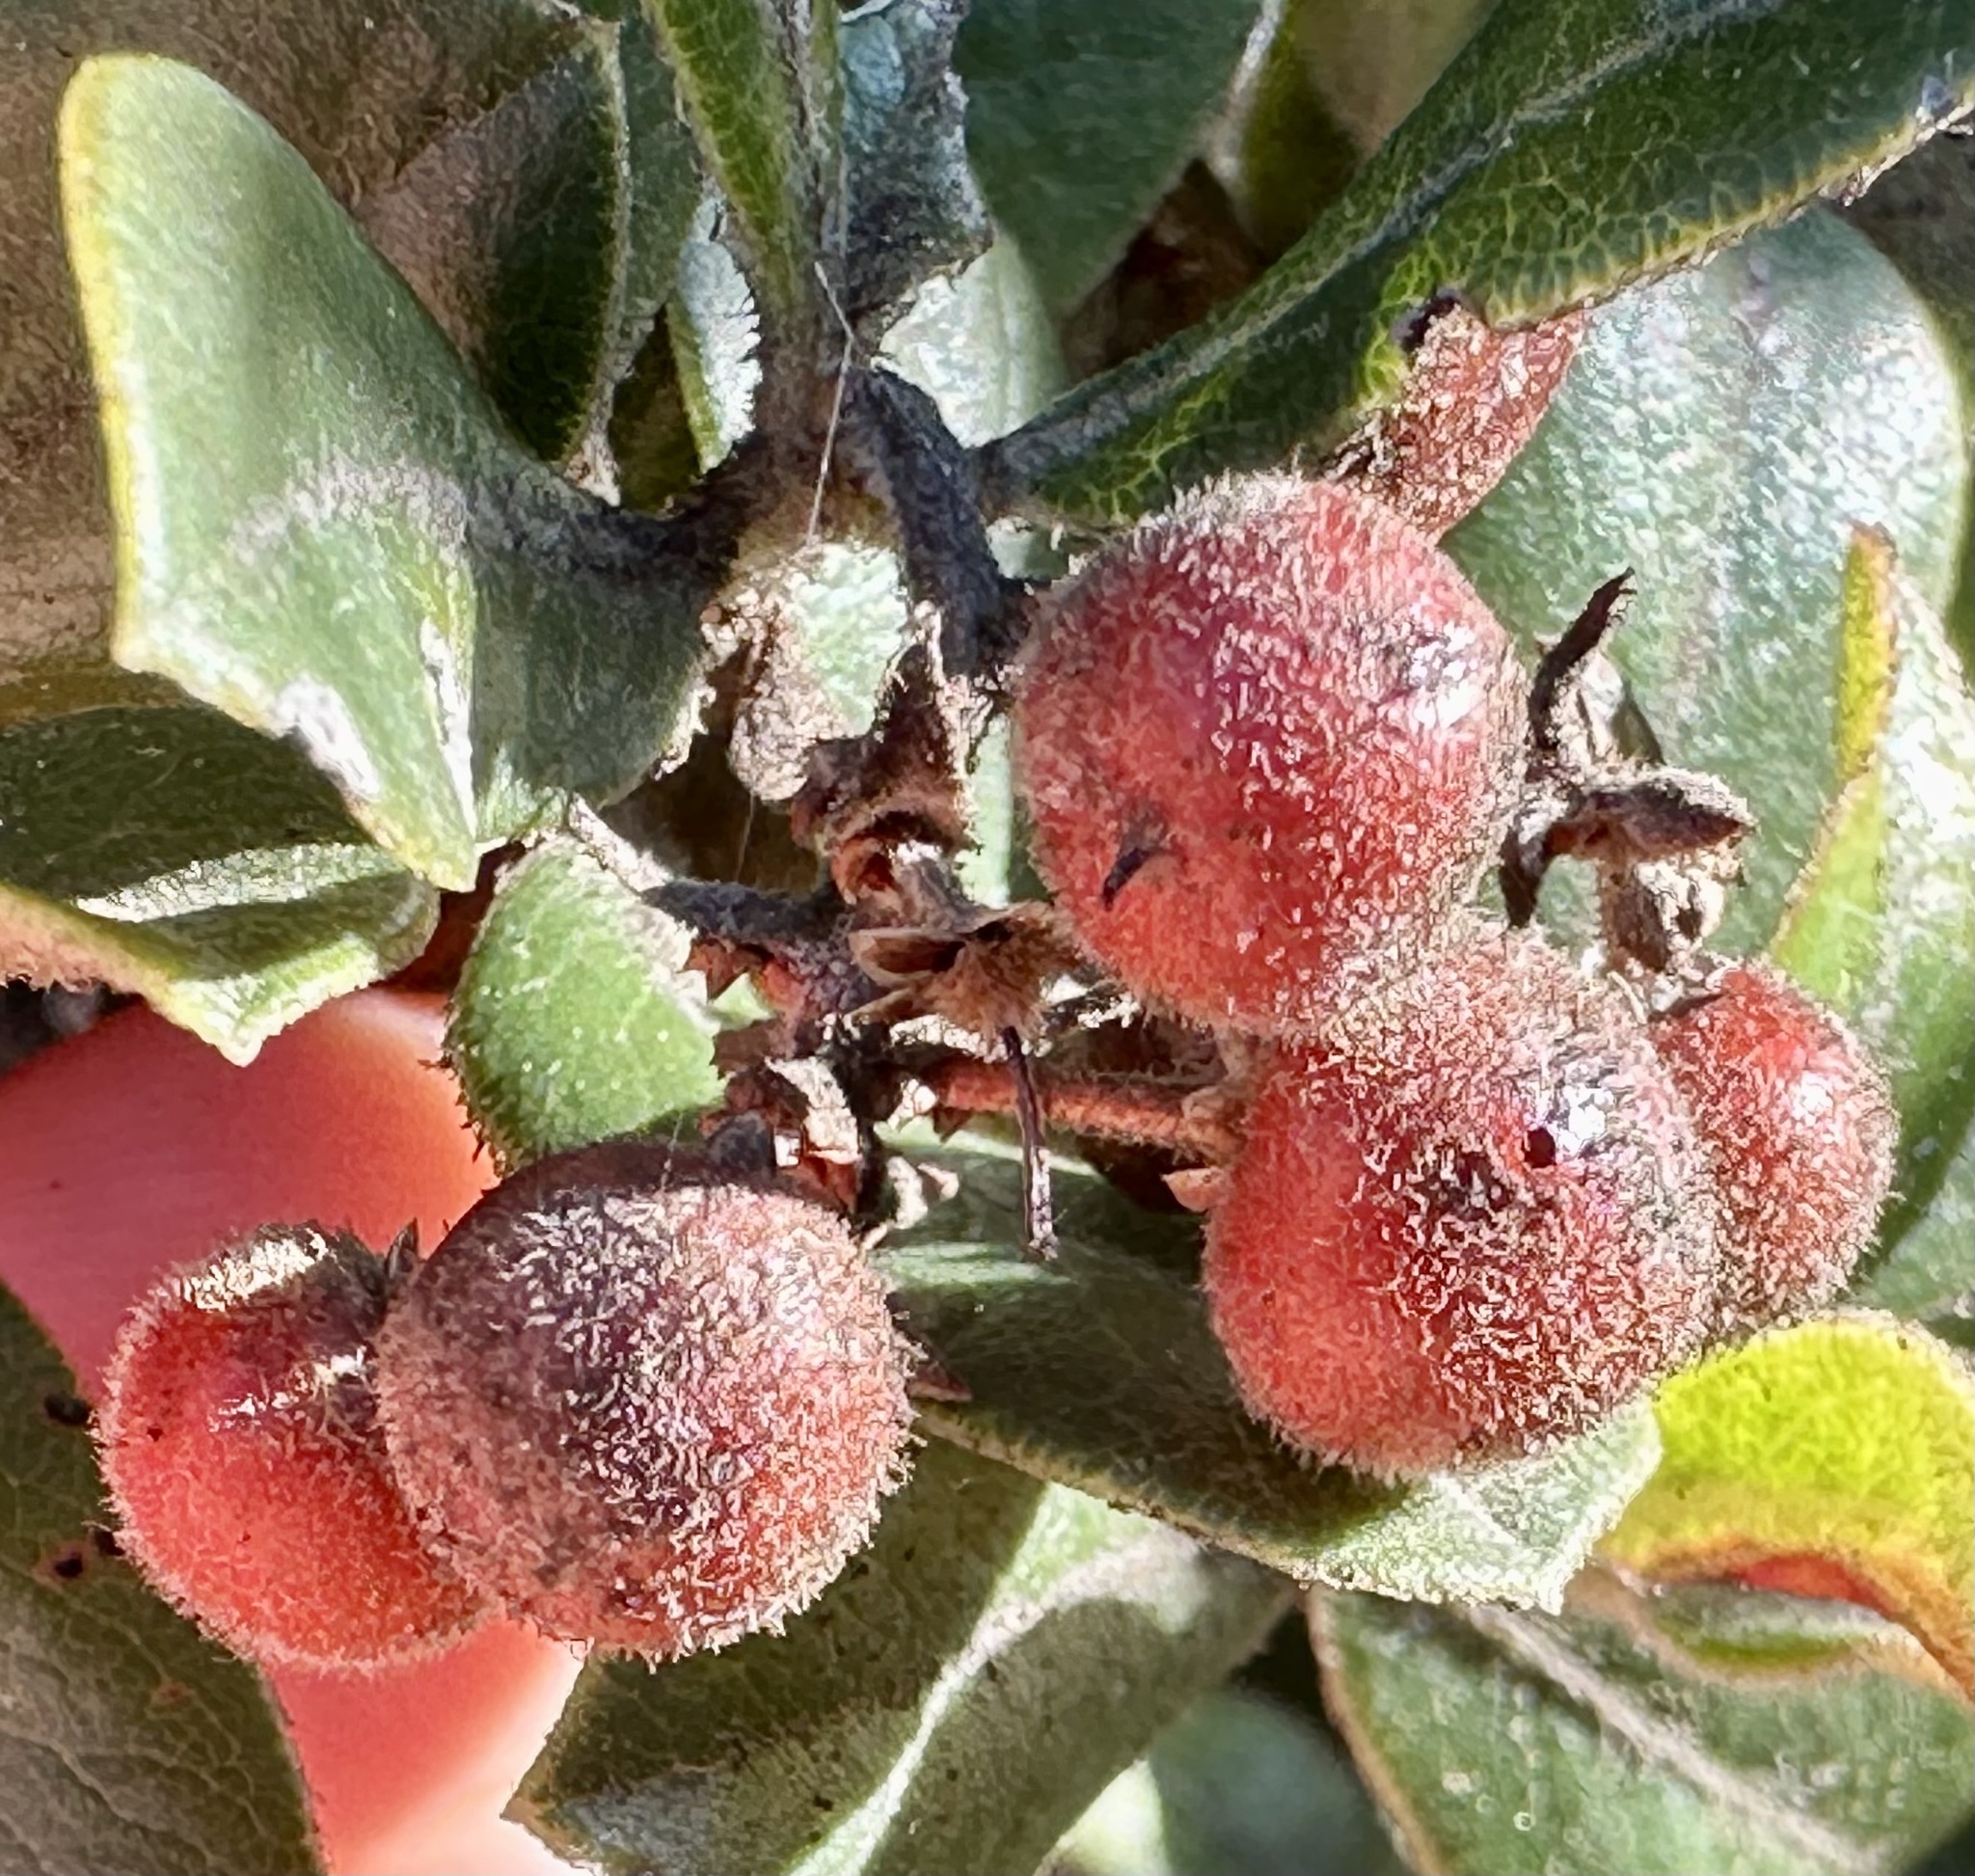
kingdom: Plantae
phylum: Tracheophyta
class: Magnoliopsida
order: Ericales
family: Ericaceae
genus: Arctostaphylos
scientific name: Arctostaphylos tomentosa
